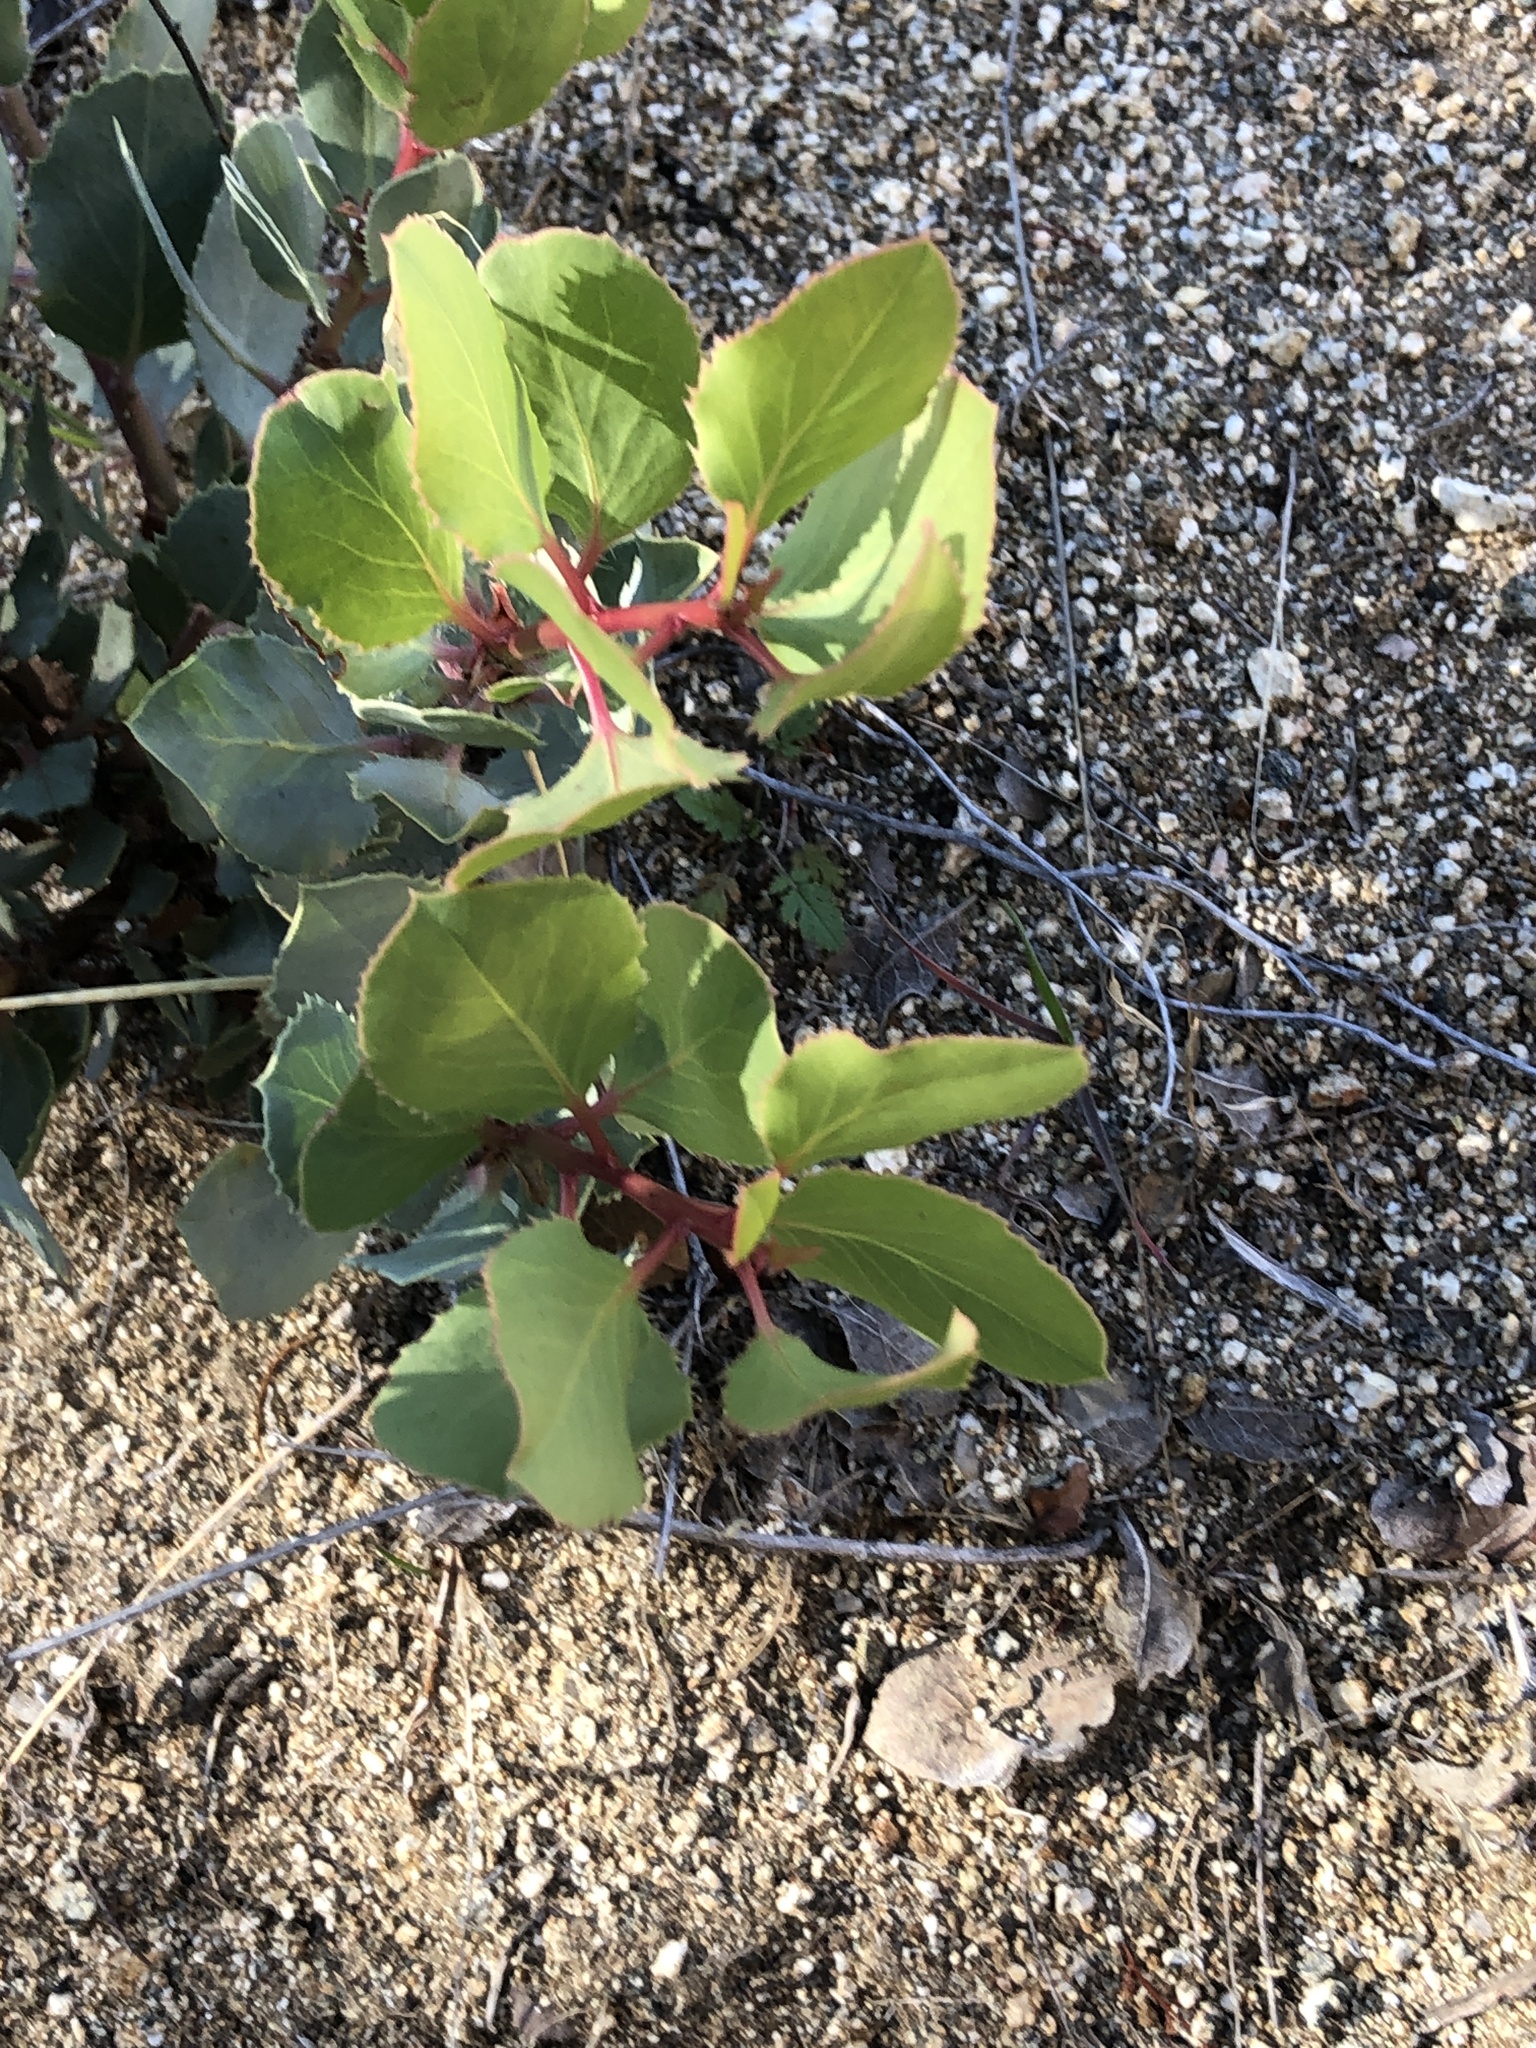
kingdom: Plantae
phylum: Tracheophyta
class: Magnoliopsida
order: Ericales
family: Ericaceae
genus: Arctostaphylos
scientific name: Arctostaphylos glauca
